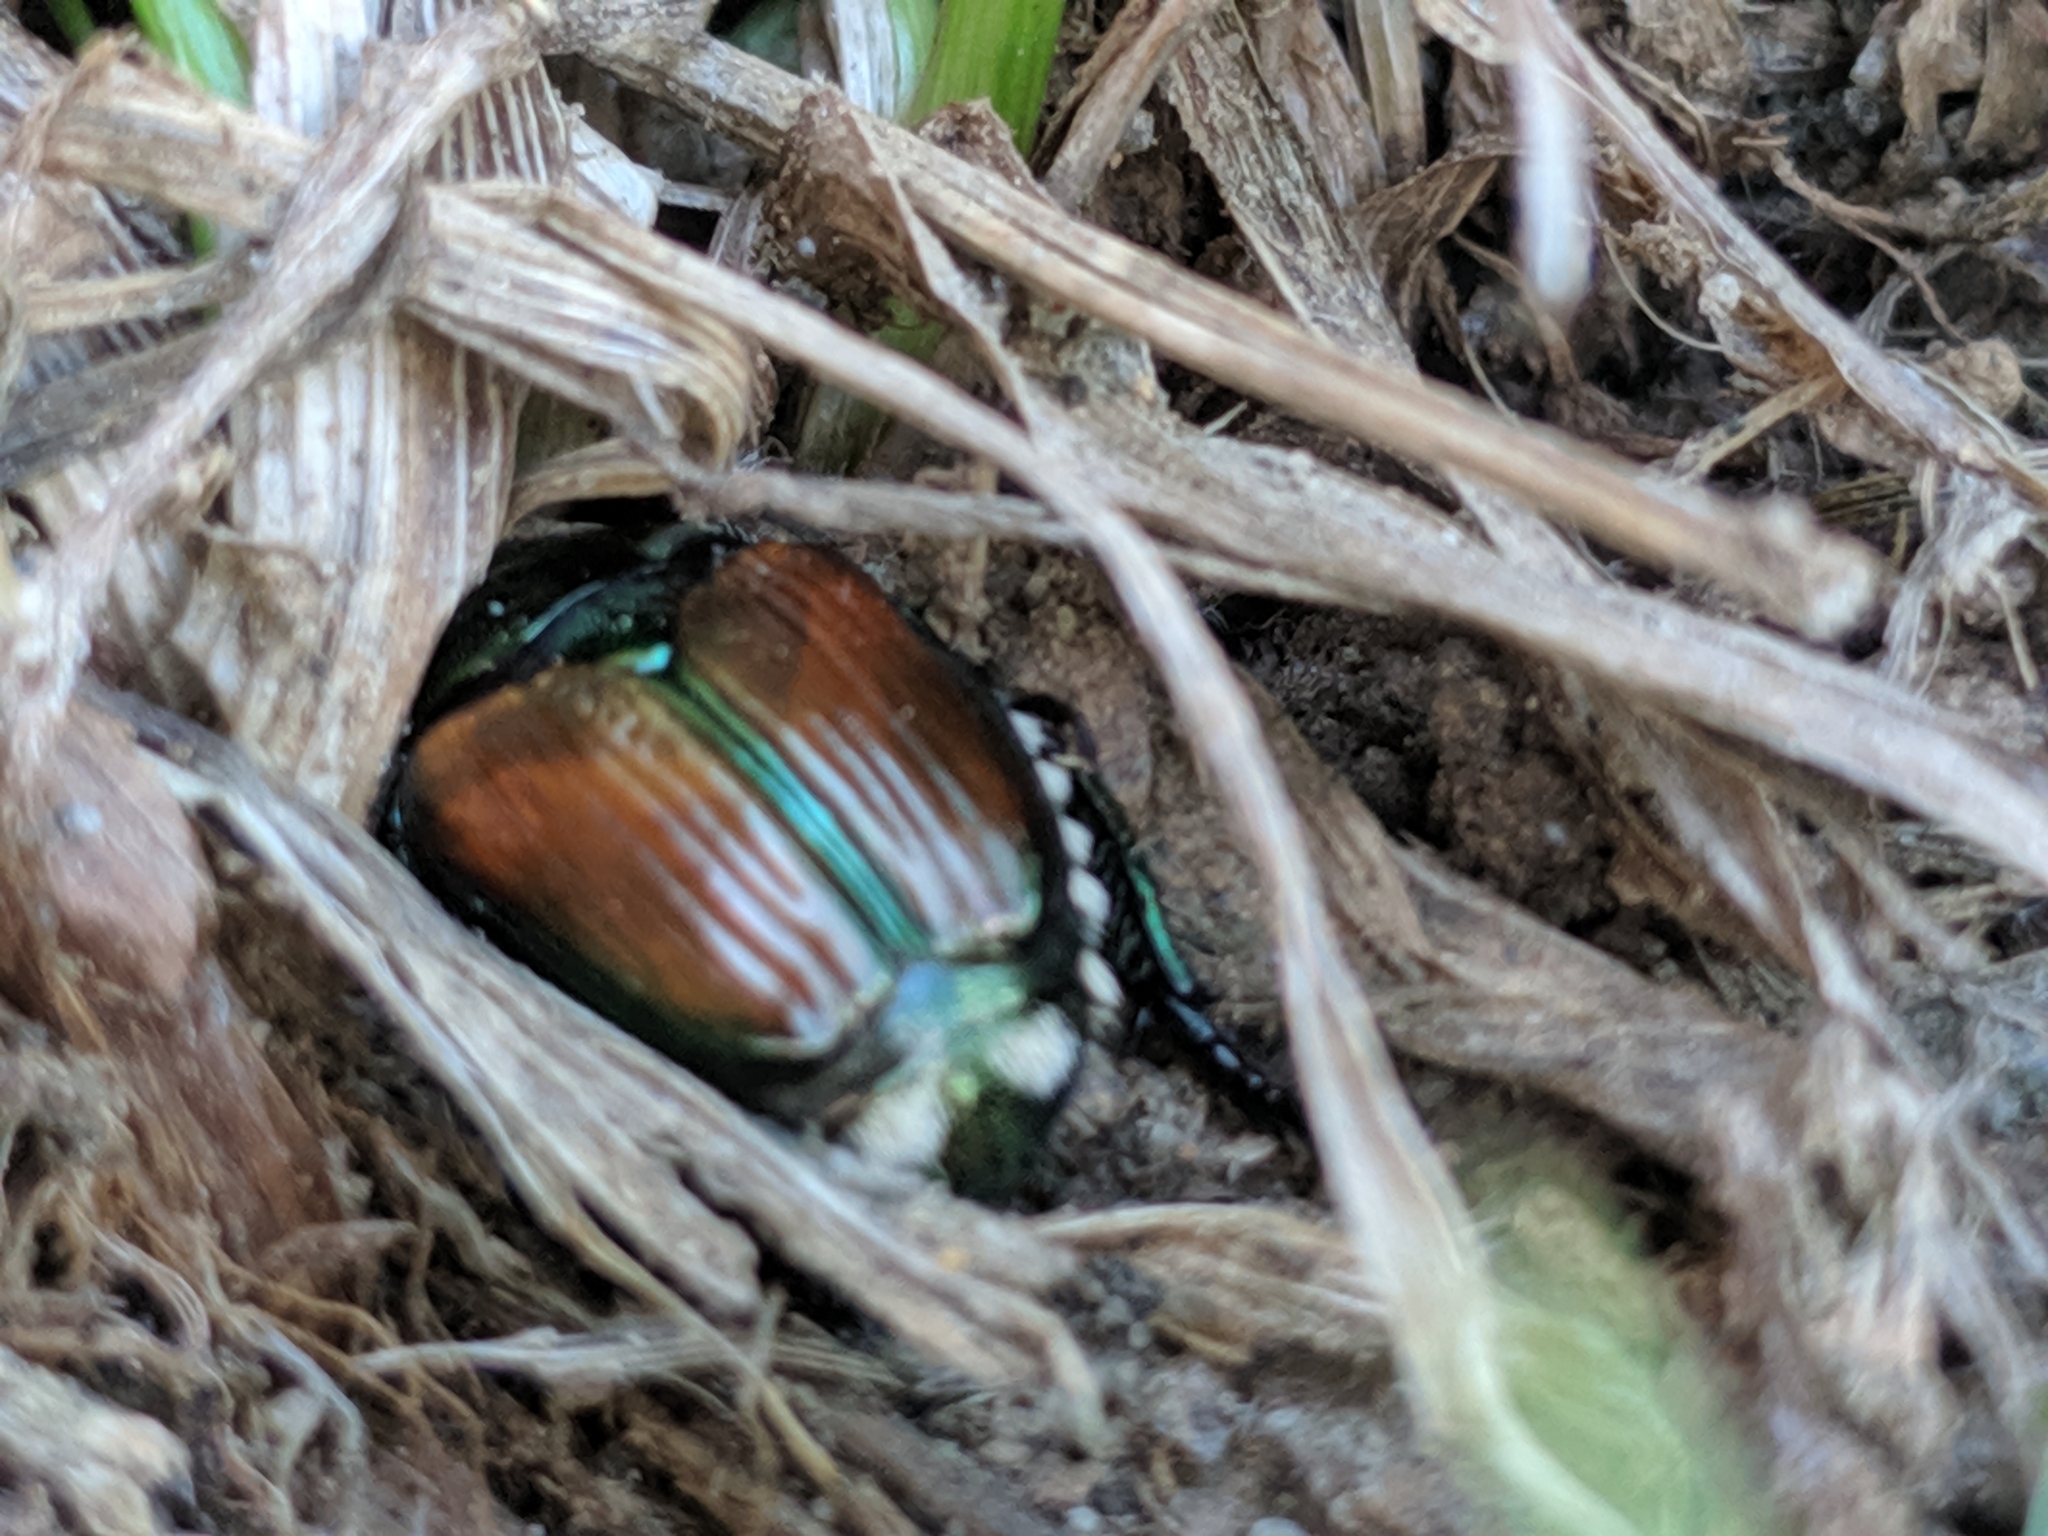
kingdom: Animalia
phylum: Arthropoda
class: Insecta
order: Coleoptera
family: Scarabaeidae
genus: Popillia
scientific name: Popillia japonica
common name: Japanese beetle
